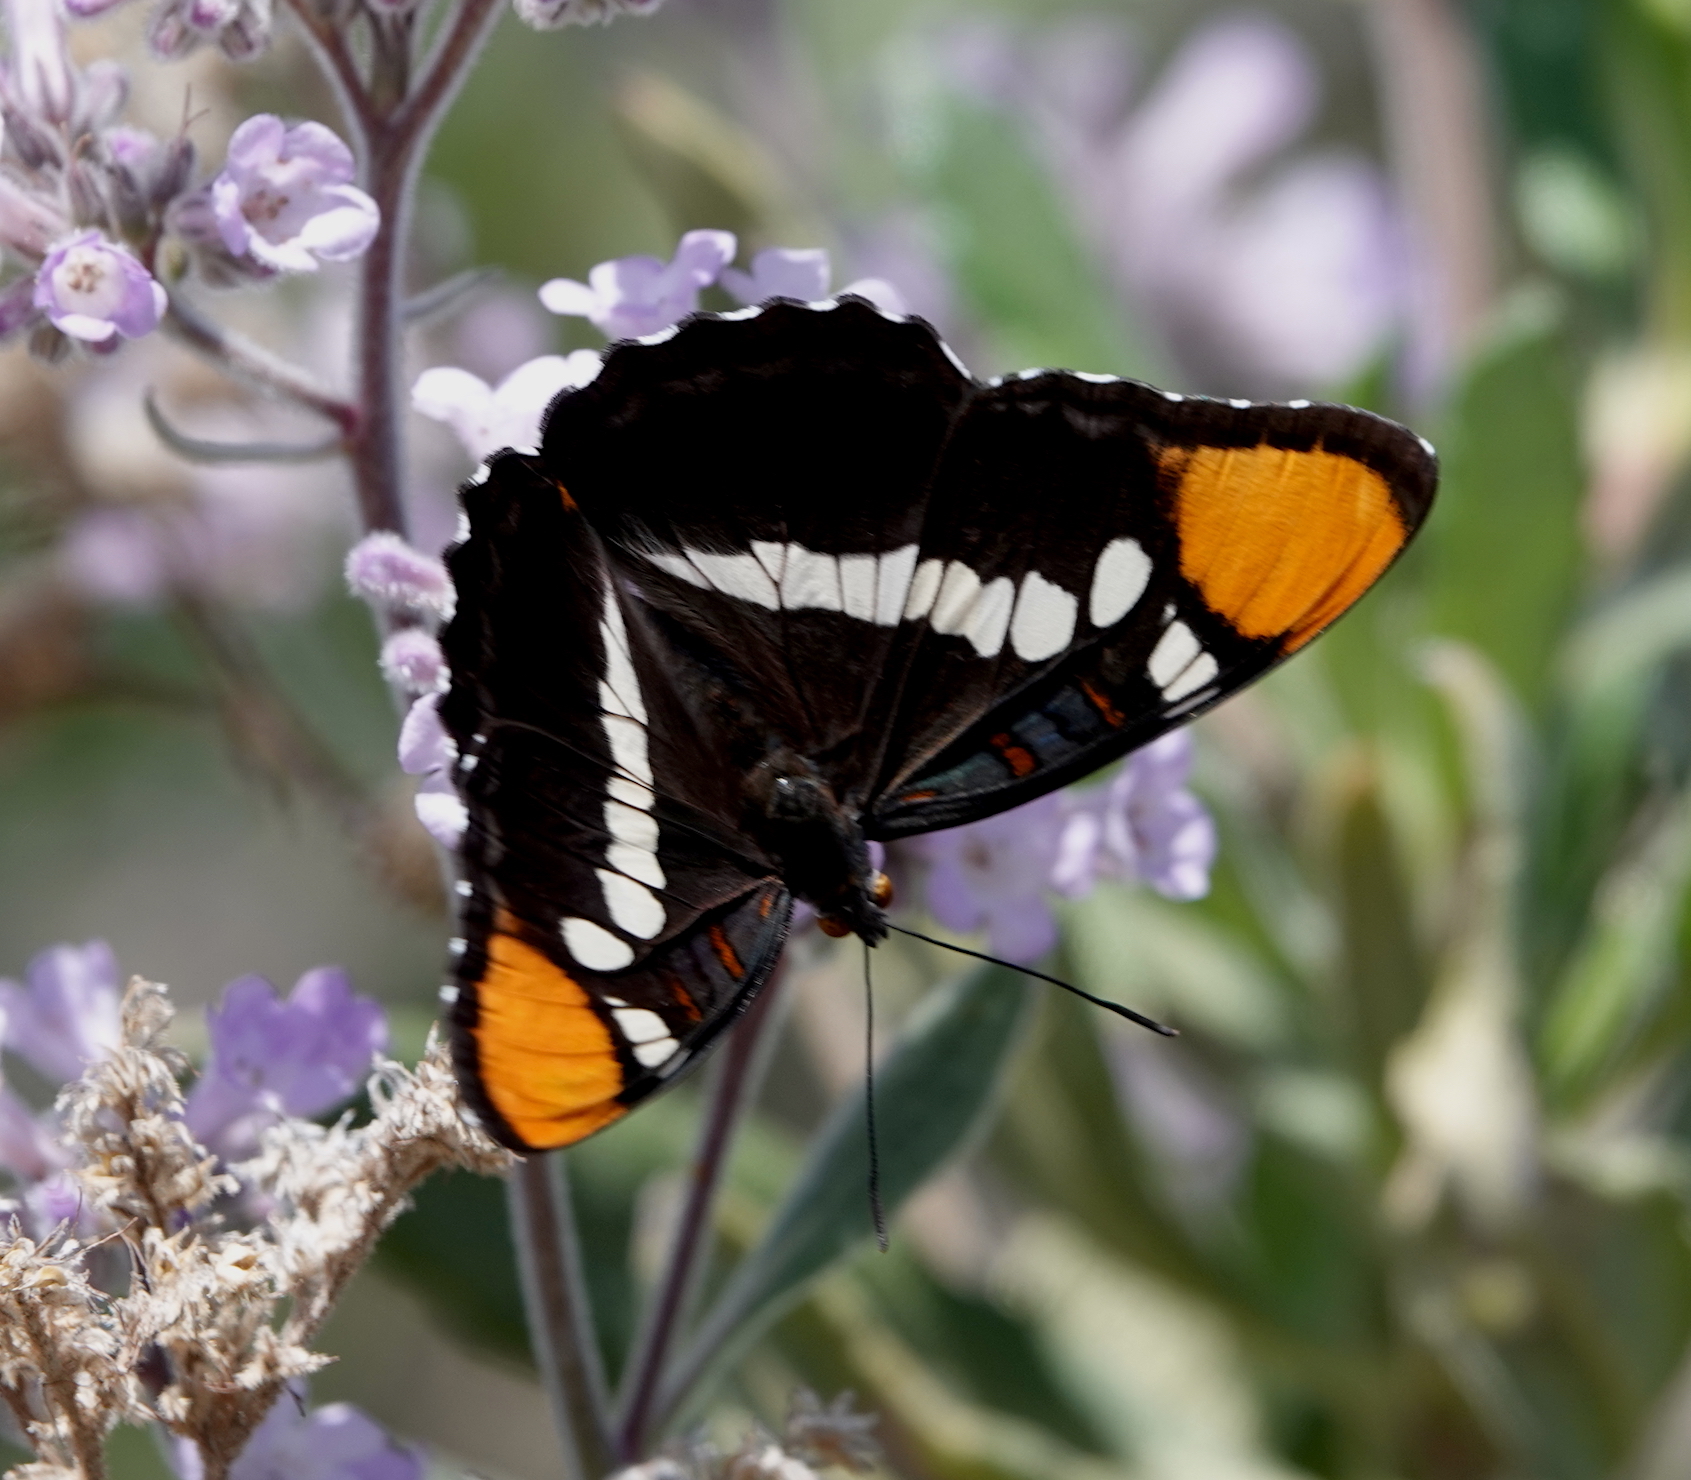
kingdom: Animalia
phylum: Arthropoda
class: Insecta
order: Lepidoptera
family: Nymphalidae
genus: Limenitis
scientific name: Limenitis bredowii
